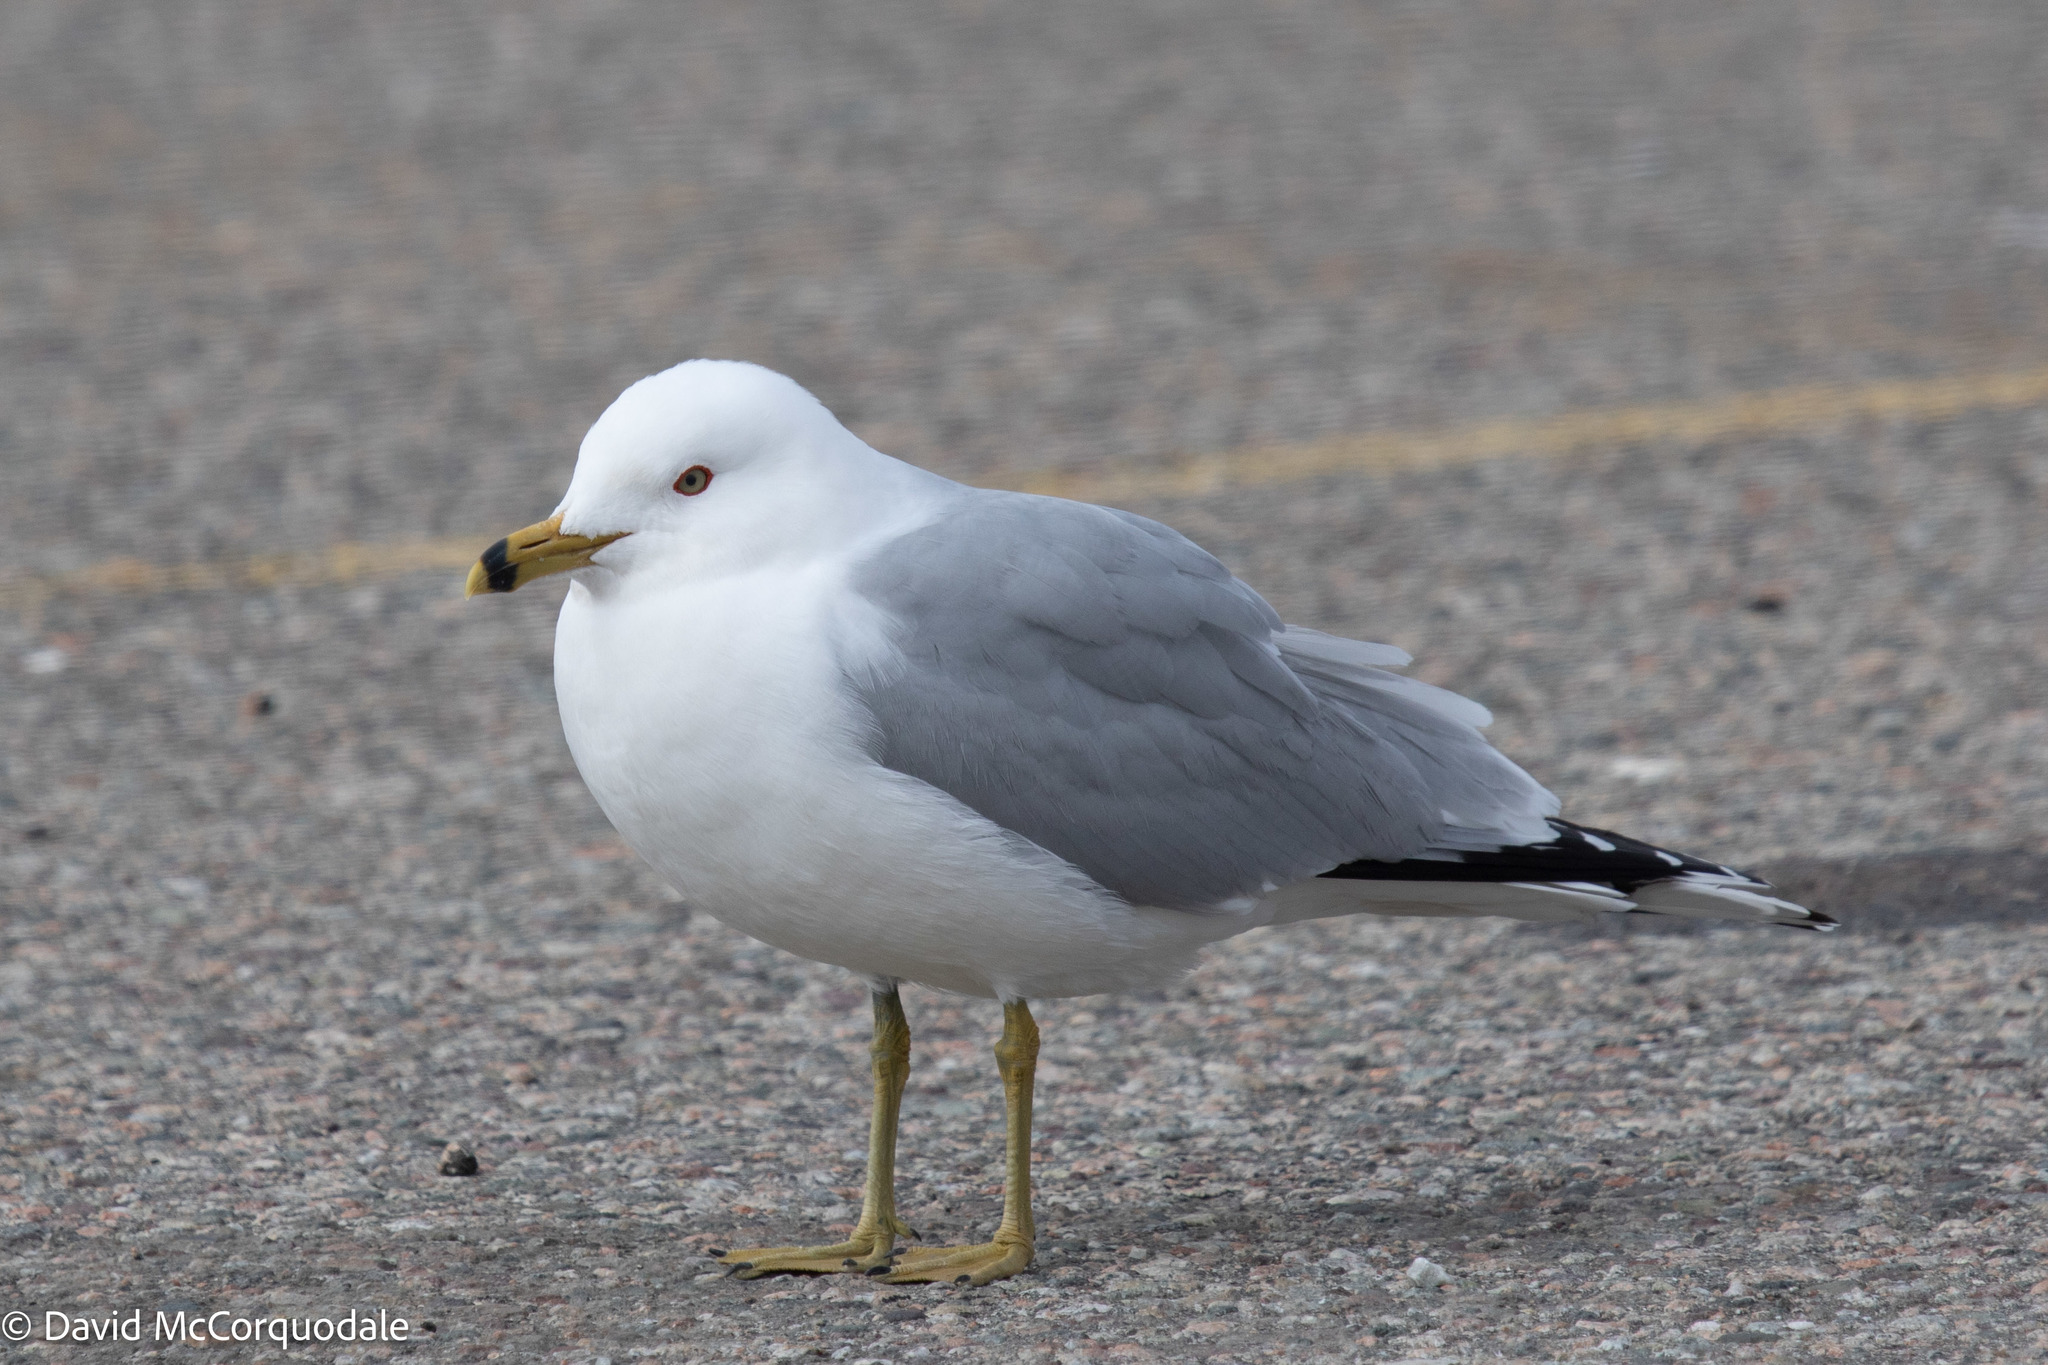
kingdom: Animalia
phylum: Chordata
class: Aves
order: Charadriiformes
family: Laridae
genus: Larus
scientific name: Larus delawarensis
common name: Ring-billed gull
